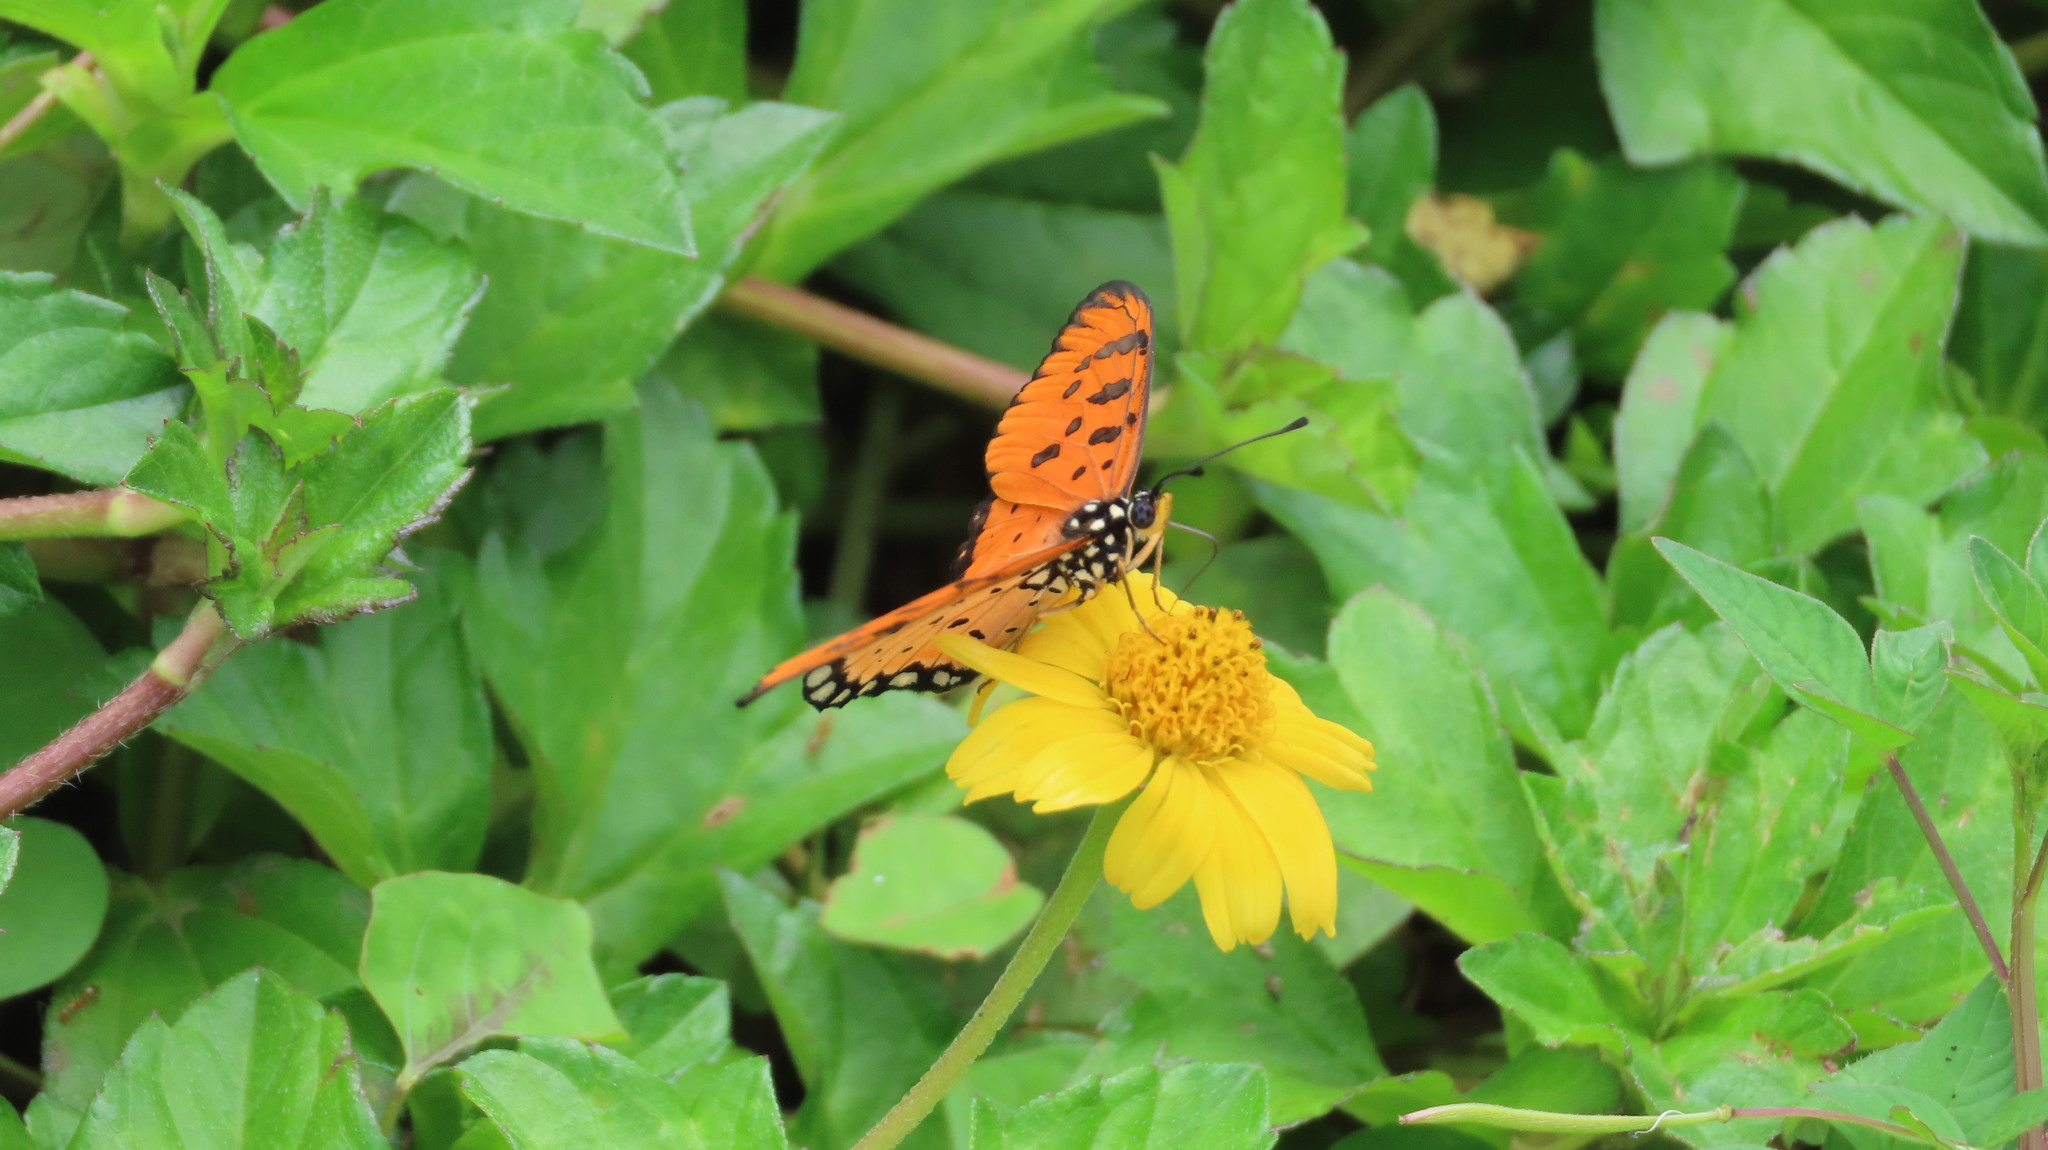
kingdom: Animalia
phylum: Arthropoda
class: Insecta
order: Lepidoptera
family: Nymphalidae
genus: Acraea
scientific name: Acraea terpsicore
